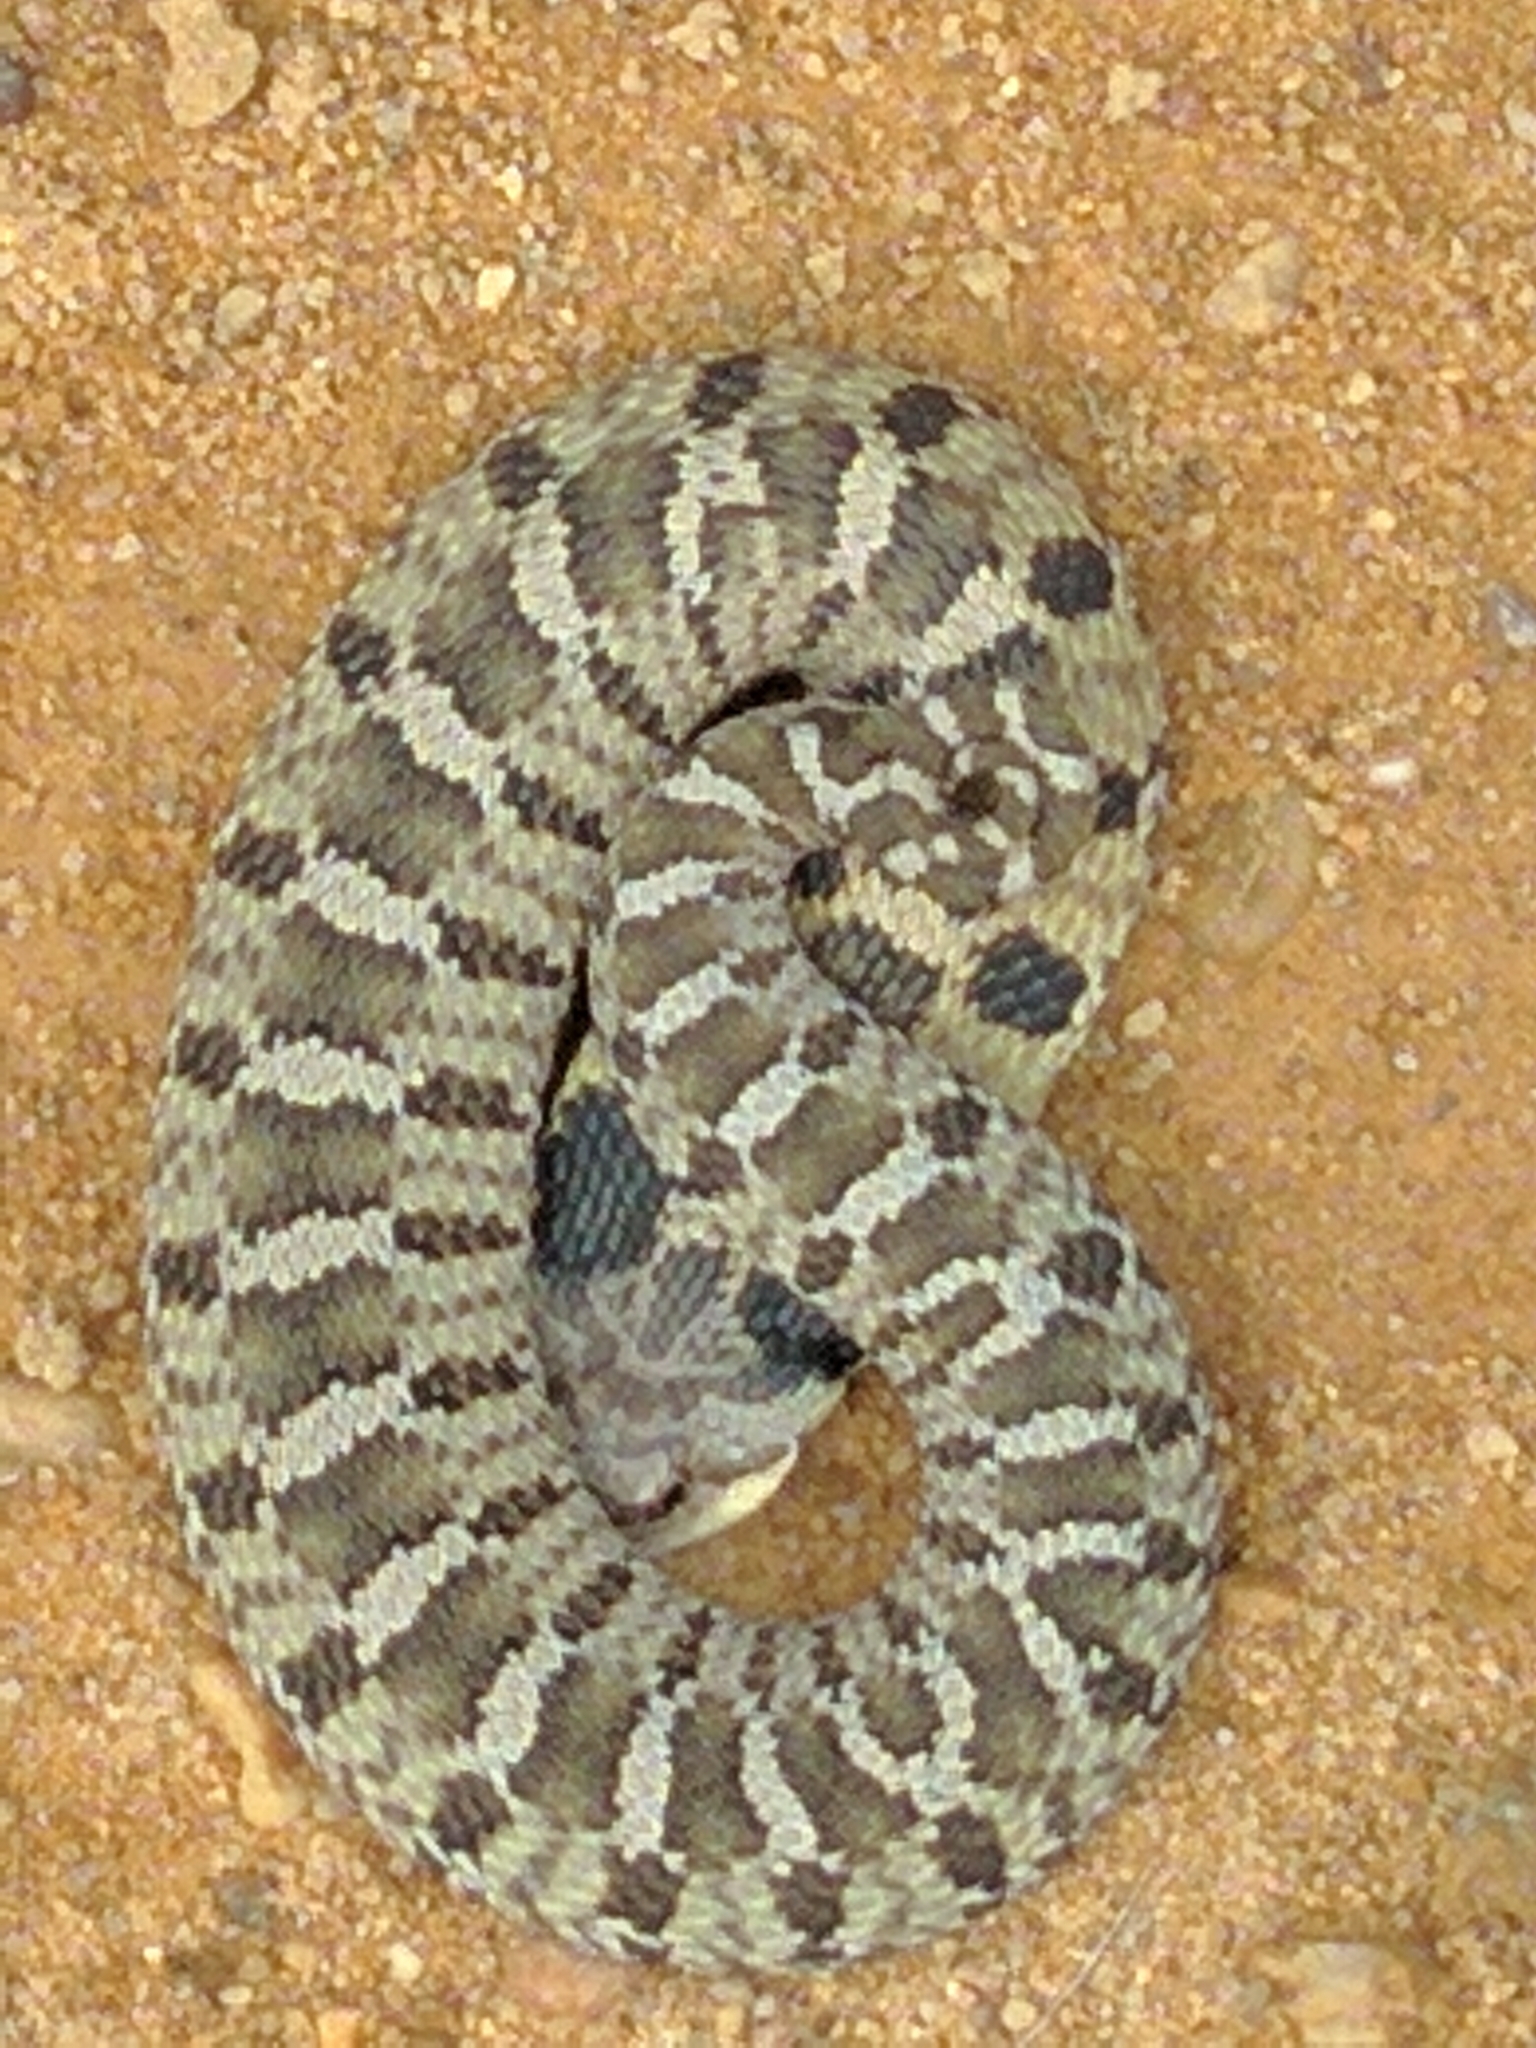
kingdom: Animalia
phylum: Chordata
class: Squamata
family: Colubridae
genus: Heterodon
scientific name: Heterodon platirhinos
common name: Eastern hognose snake
